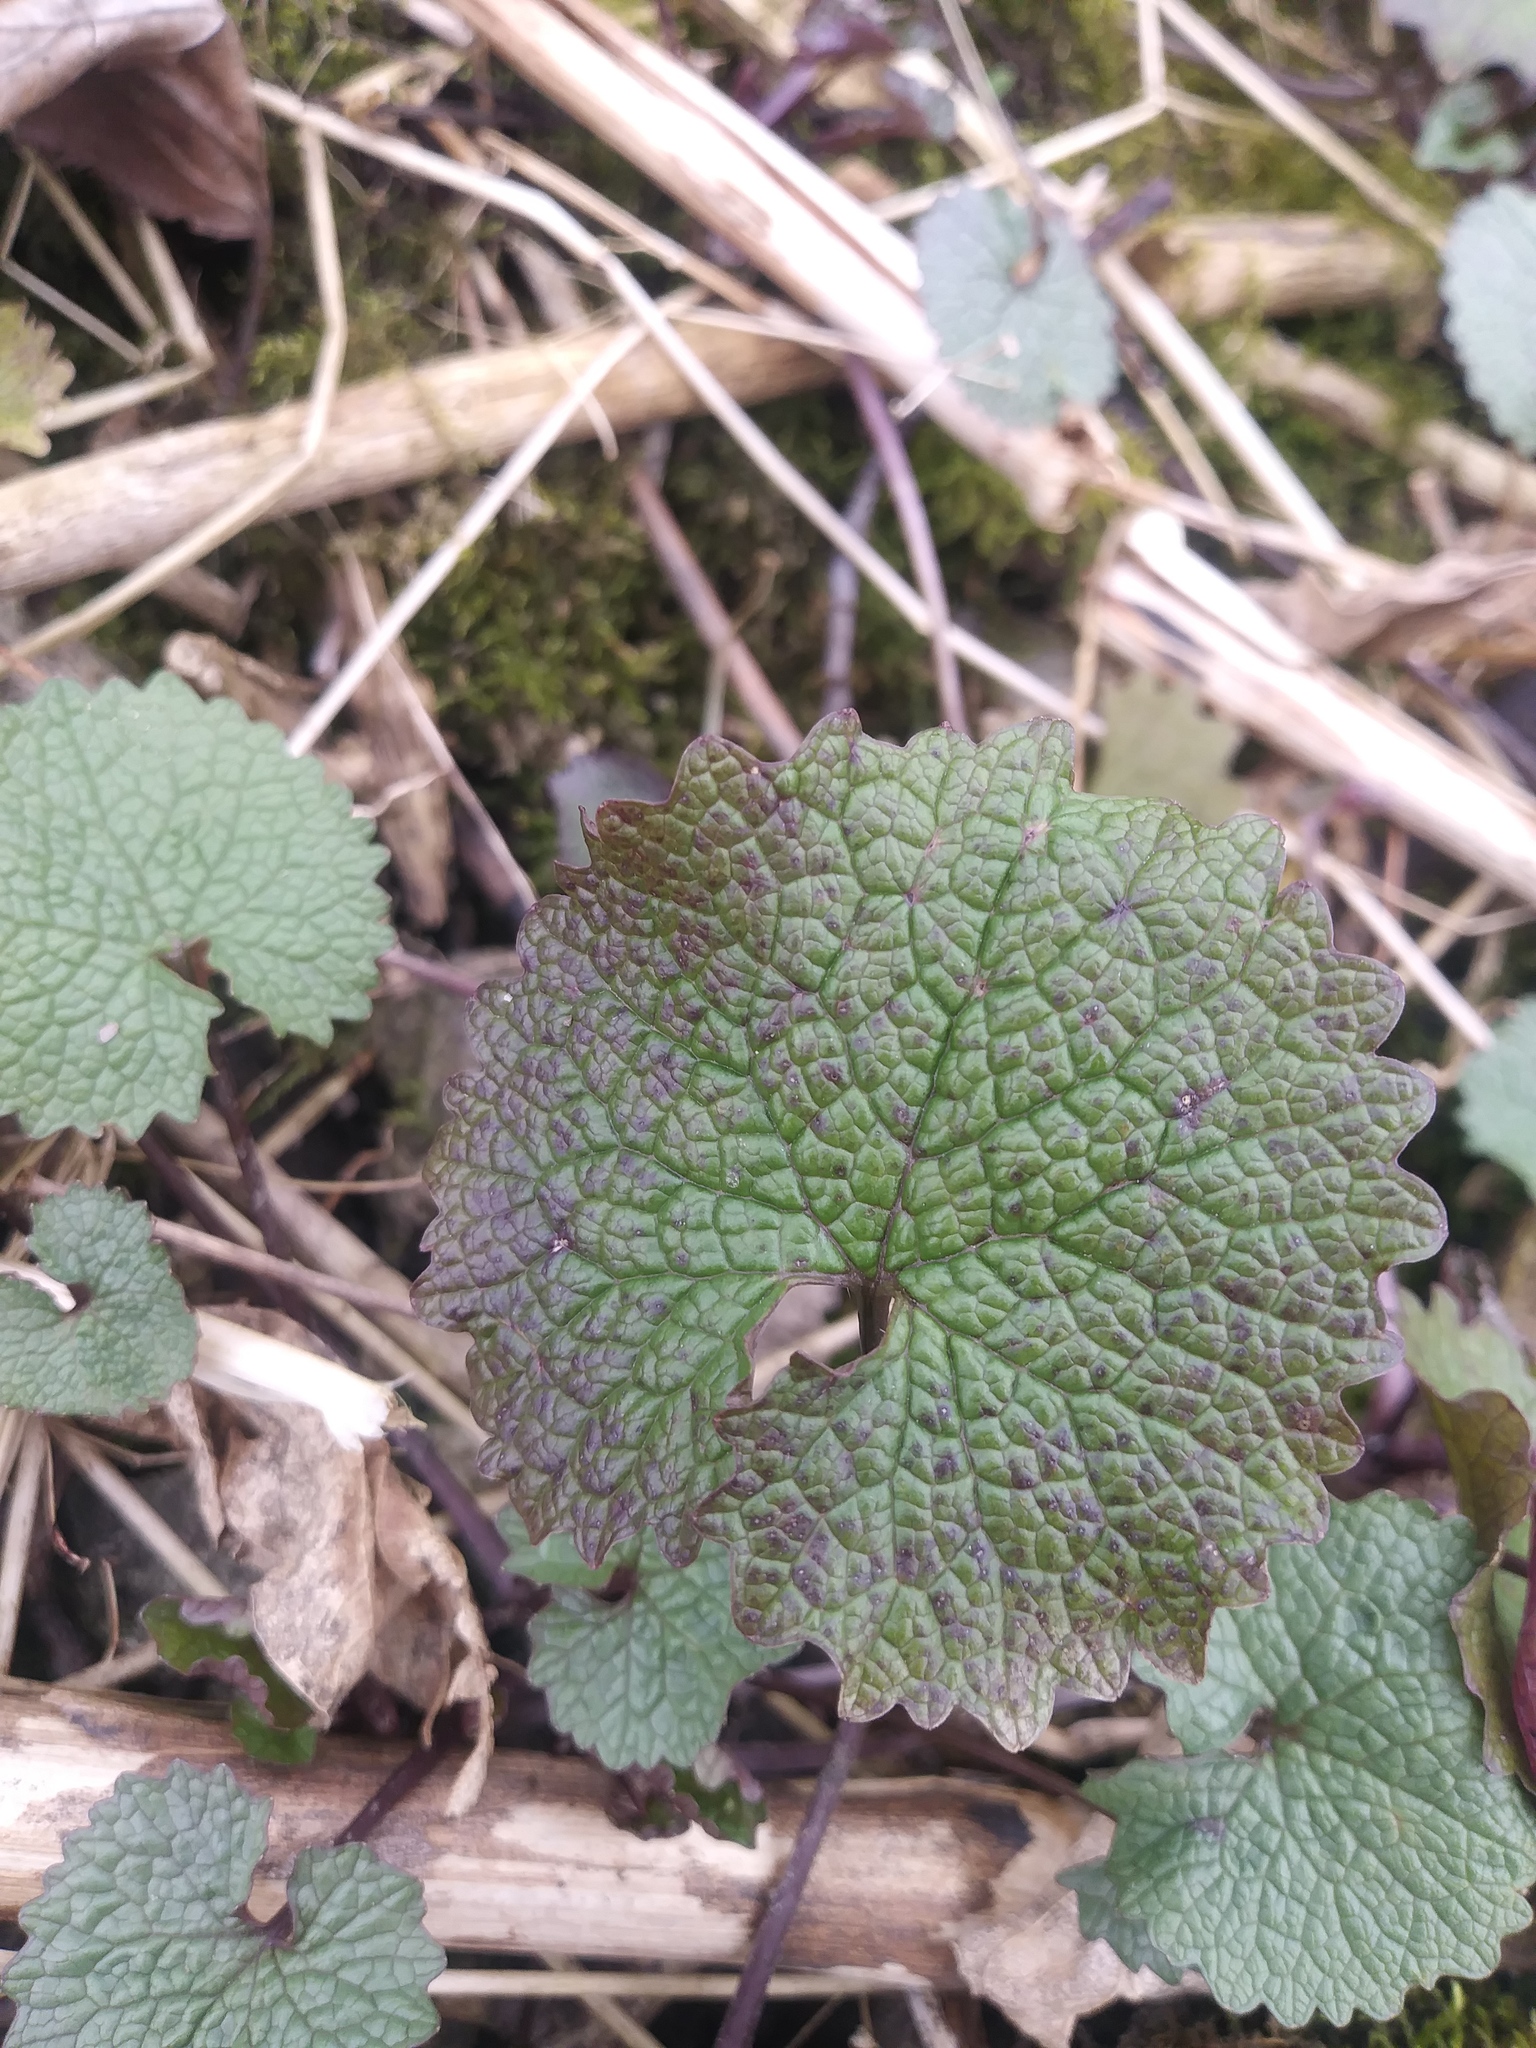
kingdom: Plantae
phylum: Tracheophyta
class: Magnoliopsida
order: Brassicales
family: Brassicaceae
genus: Alliaria
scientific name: Alliaria petiolata
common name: Garlic mustard
